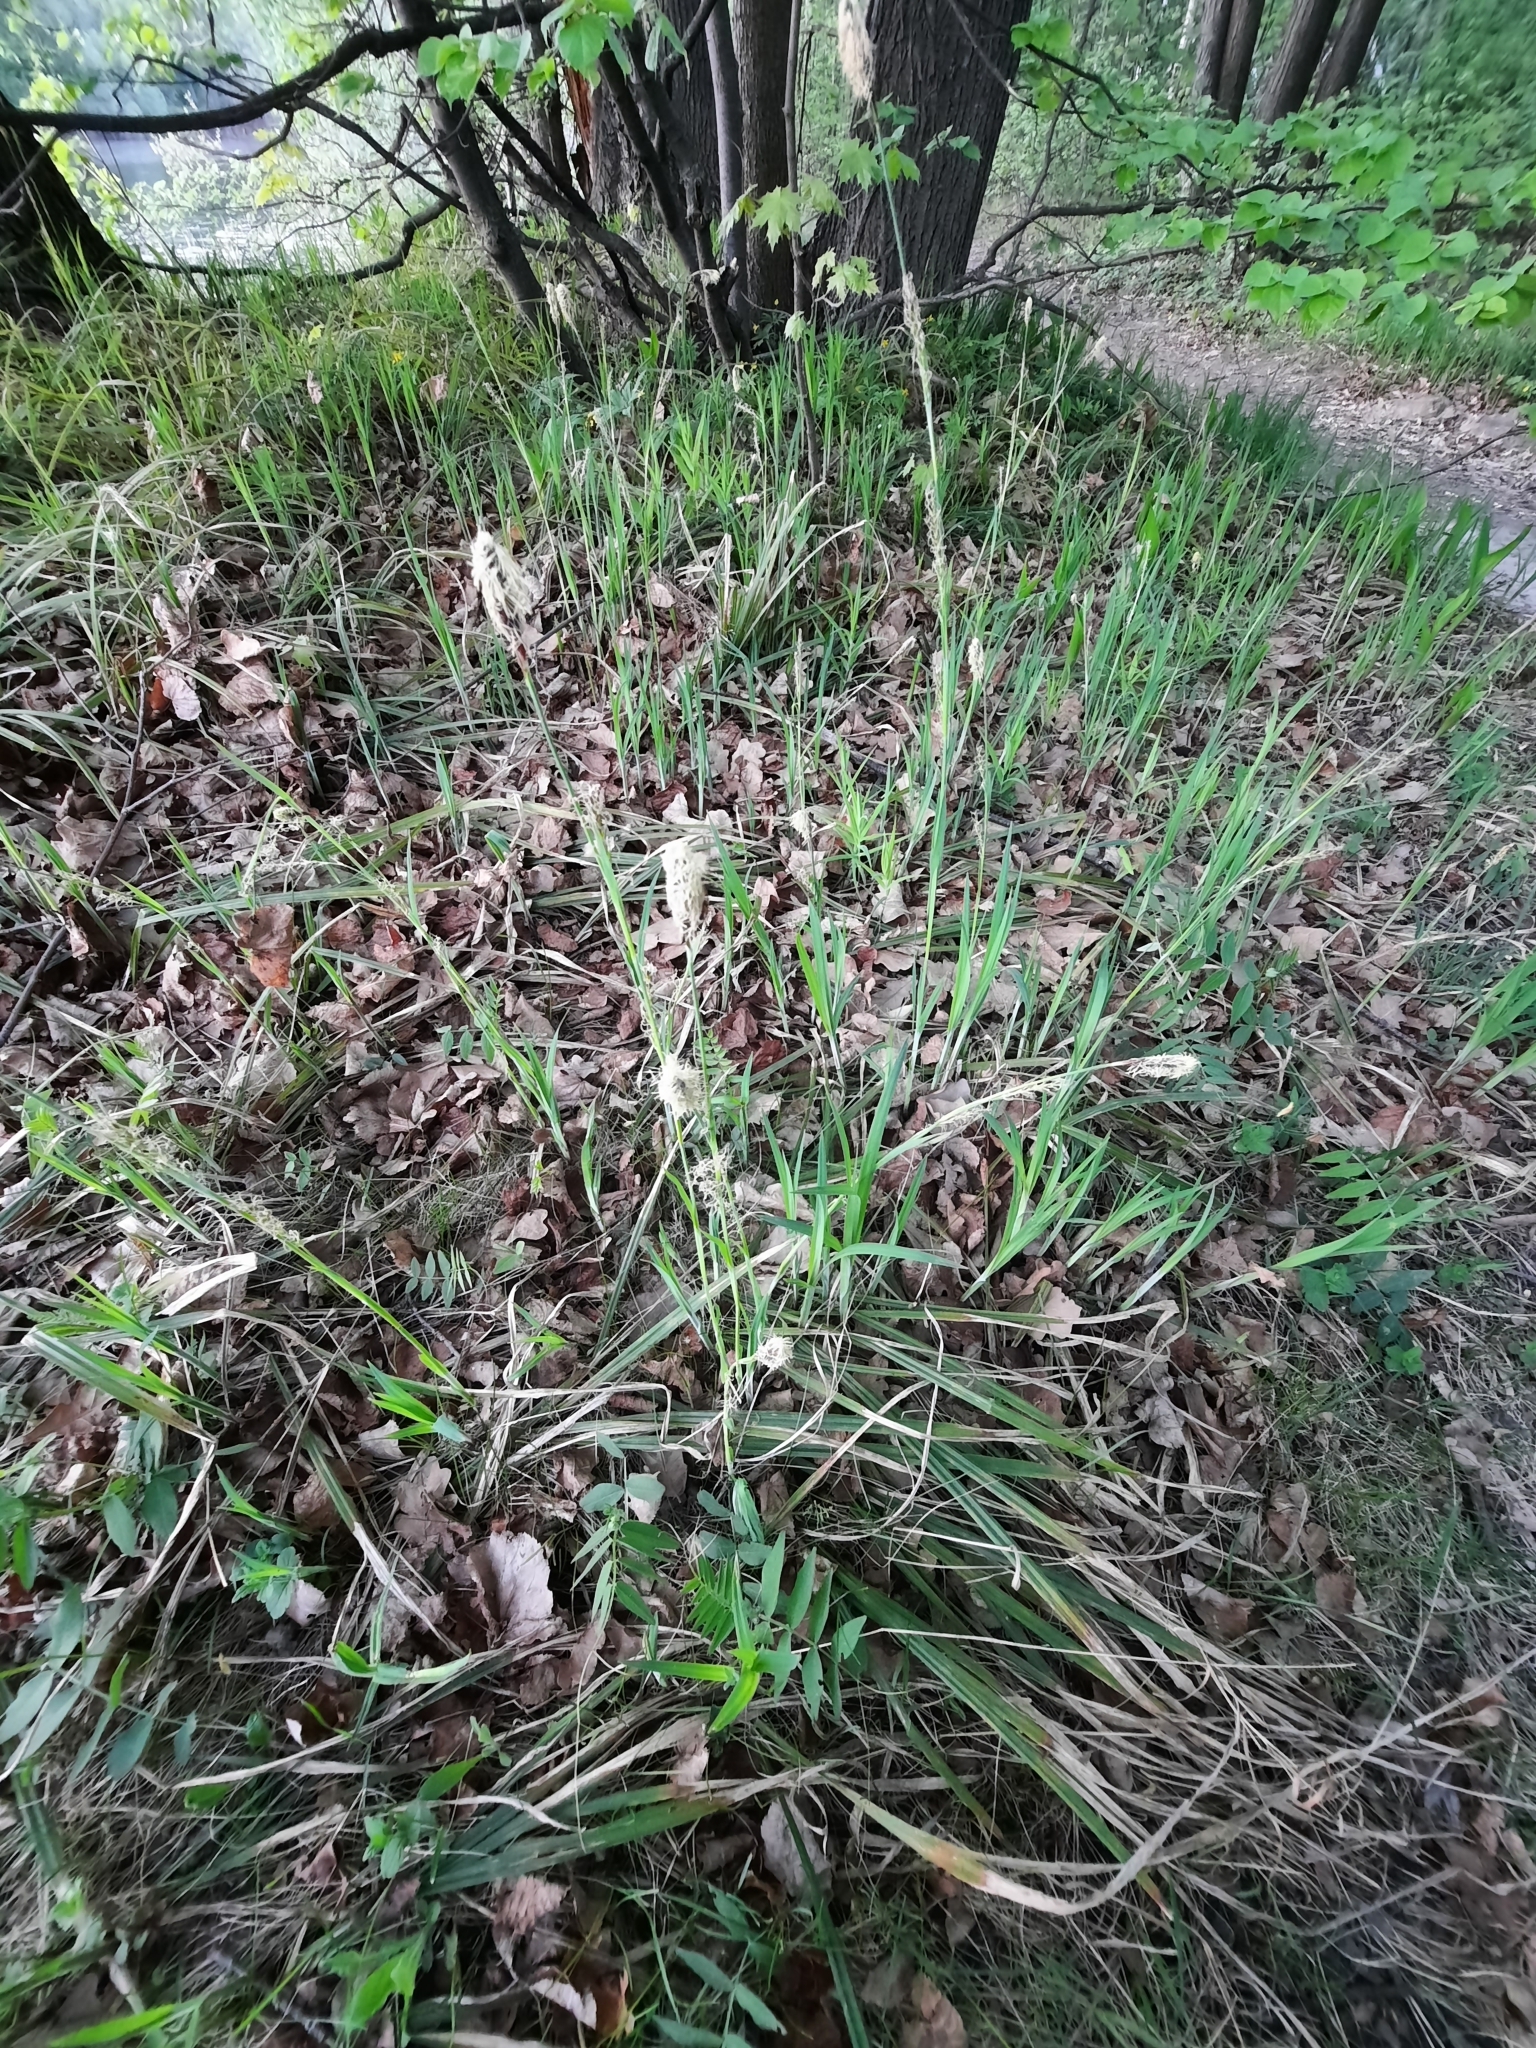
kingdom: Plantae
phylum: Tracheophyta
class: Liliopsida
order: Poales
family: Cyperaceae
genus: Carex
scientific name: Carex pilosa
